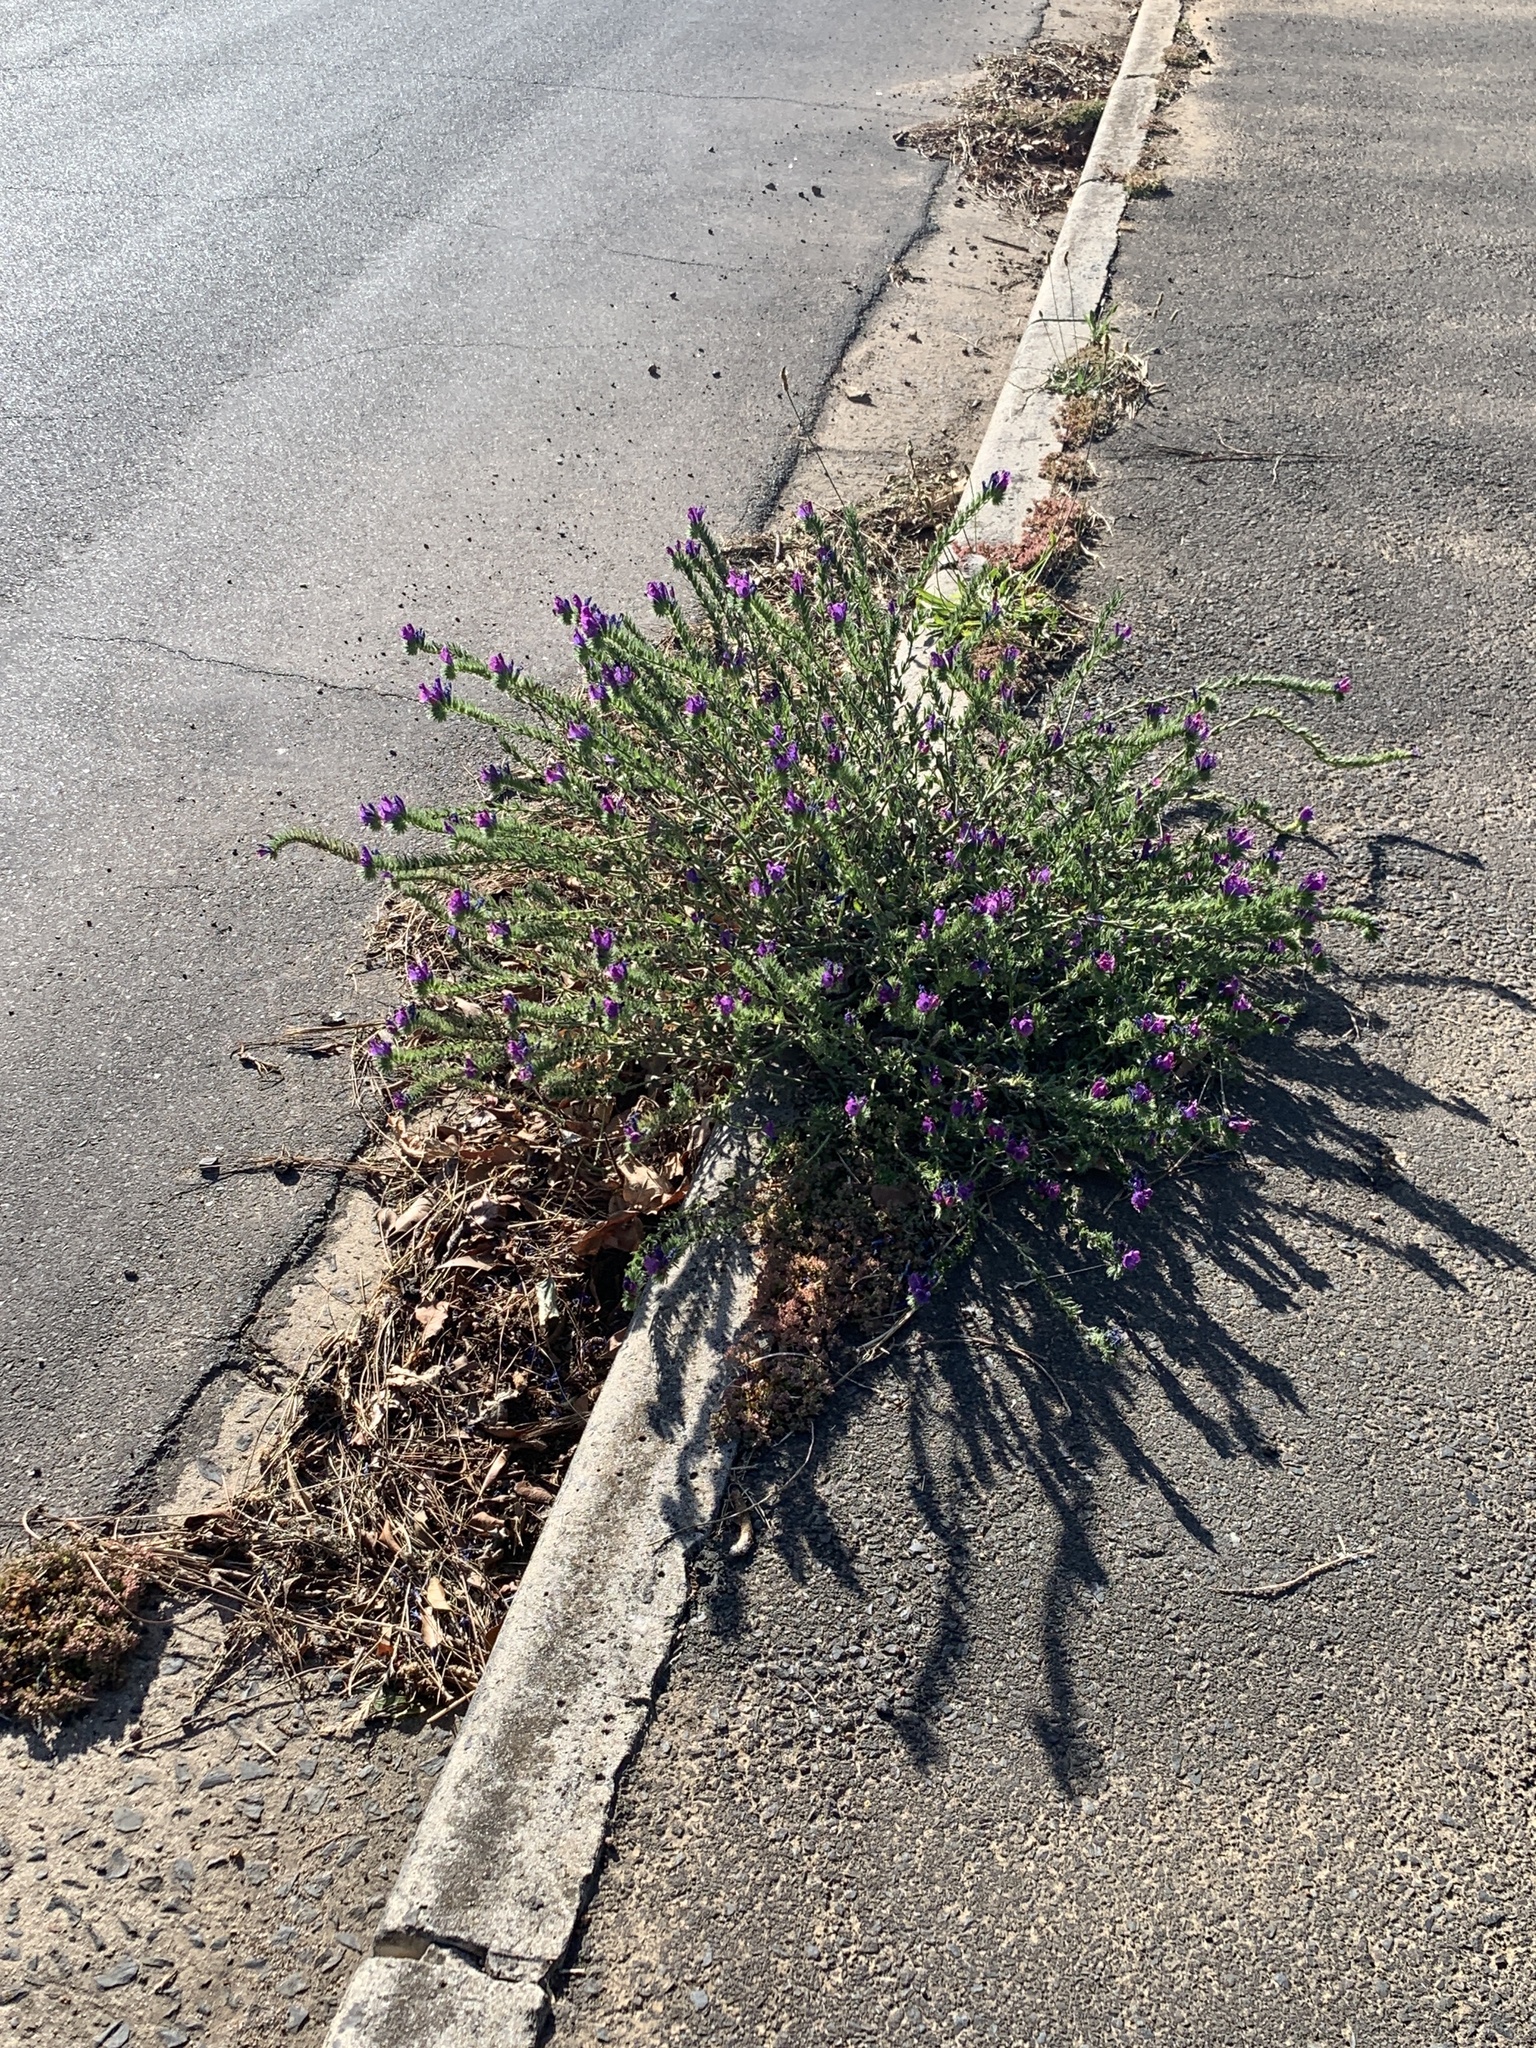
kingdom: Plantae
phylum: Tracheophyta
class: Magnoliopsida
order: Boraginales
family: Boraginaceae
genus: Echium
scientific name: Echium plantagineum
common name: Purple viper's-bugloss
